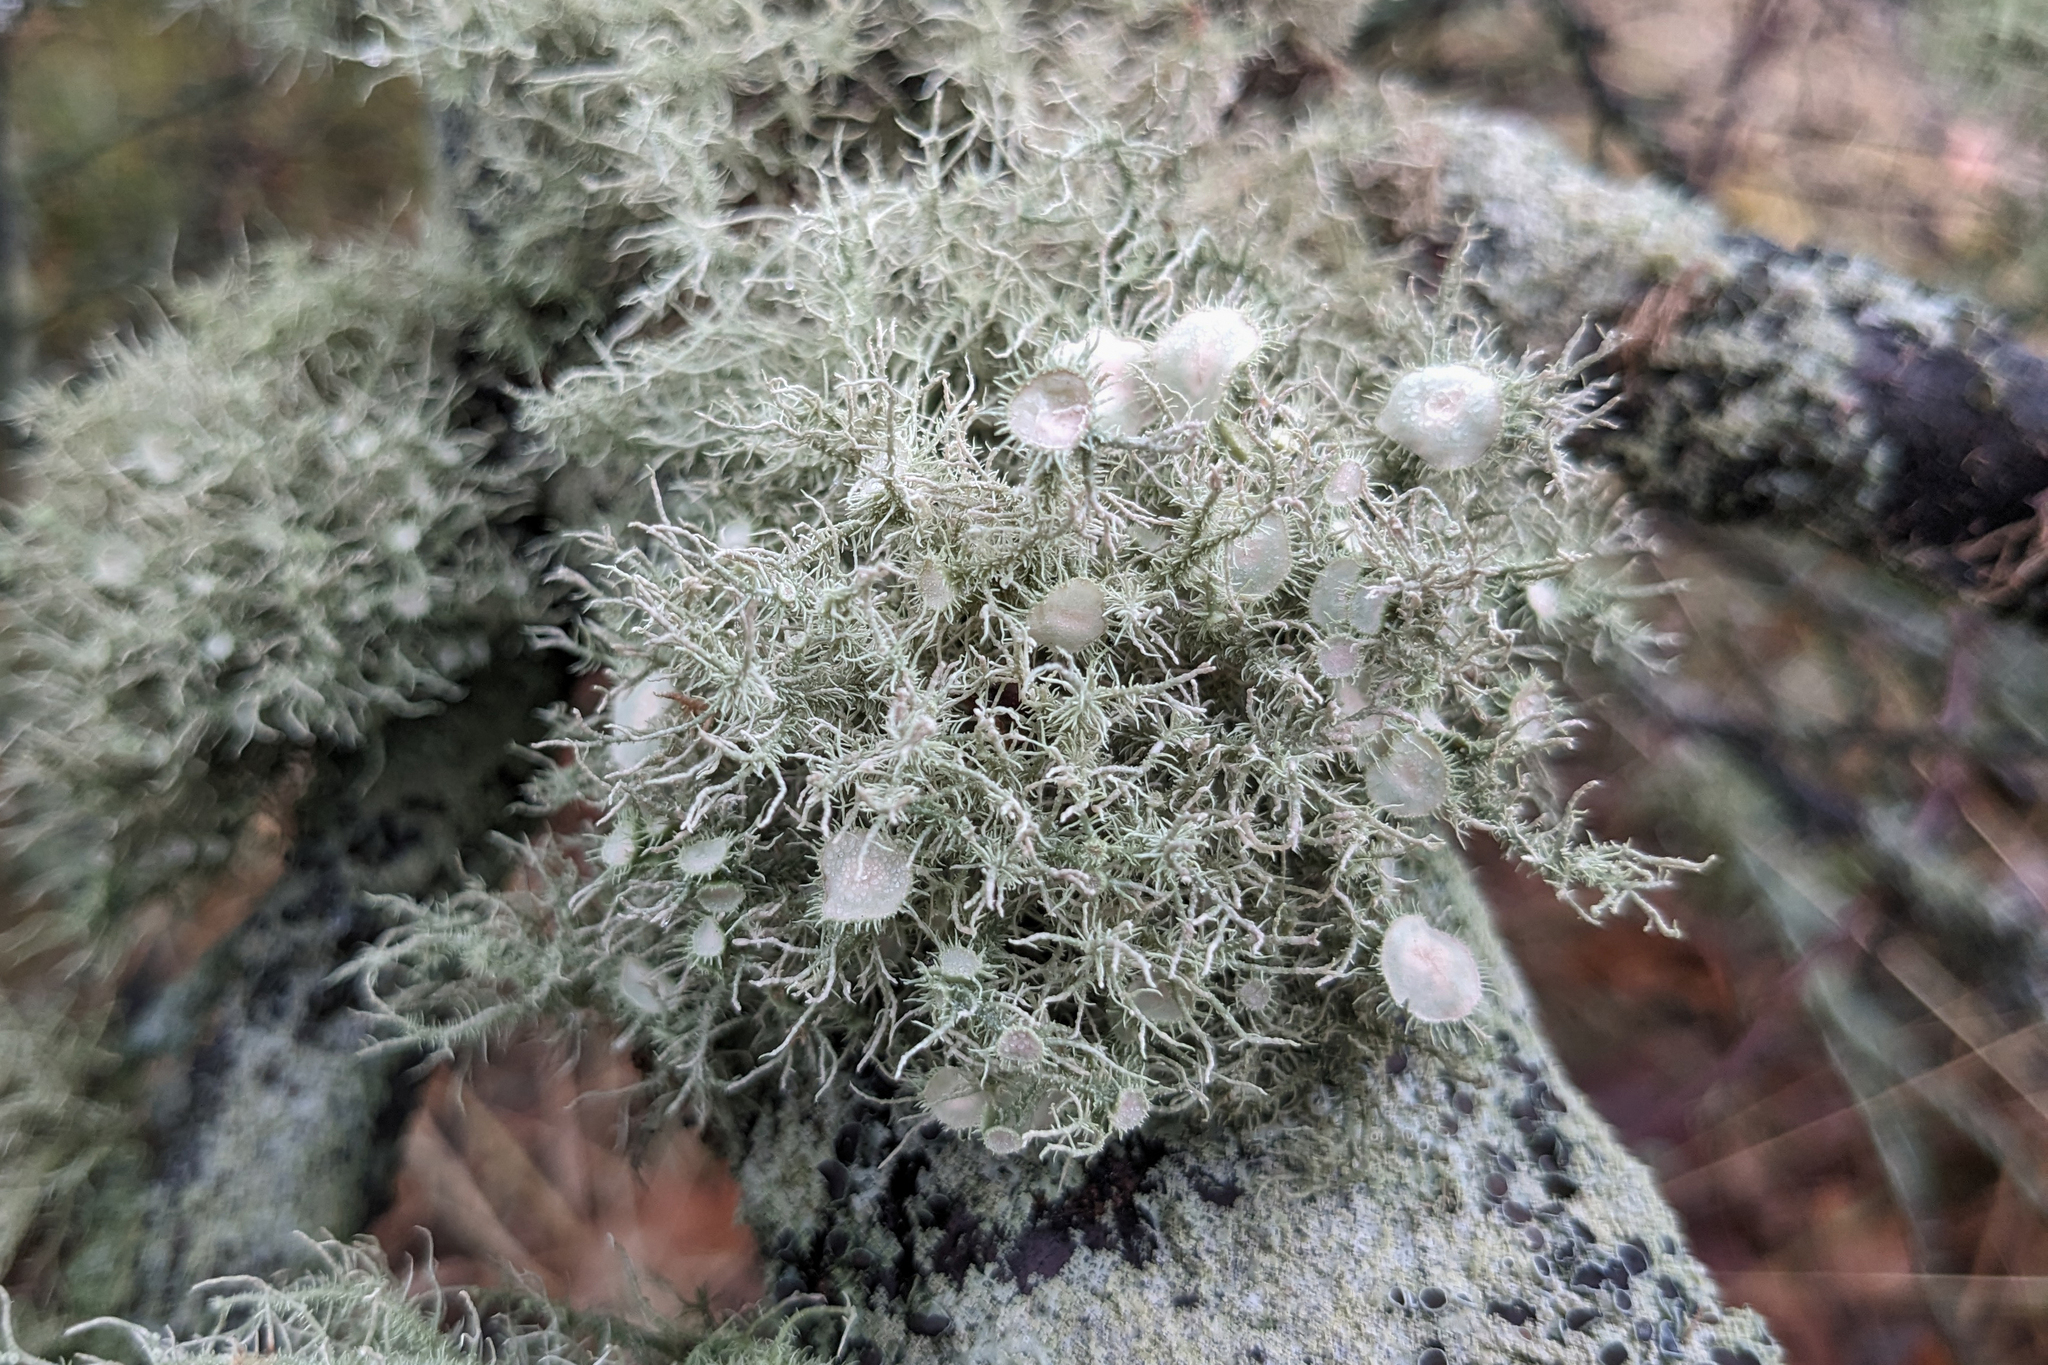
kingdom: Fungi
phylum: Ascomycota
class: Lecanoromycetes
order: Lecanorales
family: Parmeliaceae
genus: Usnea
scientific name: Usnea strigosa
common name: Bushy beard lichen
